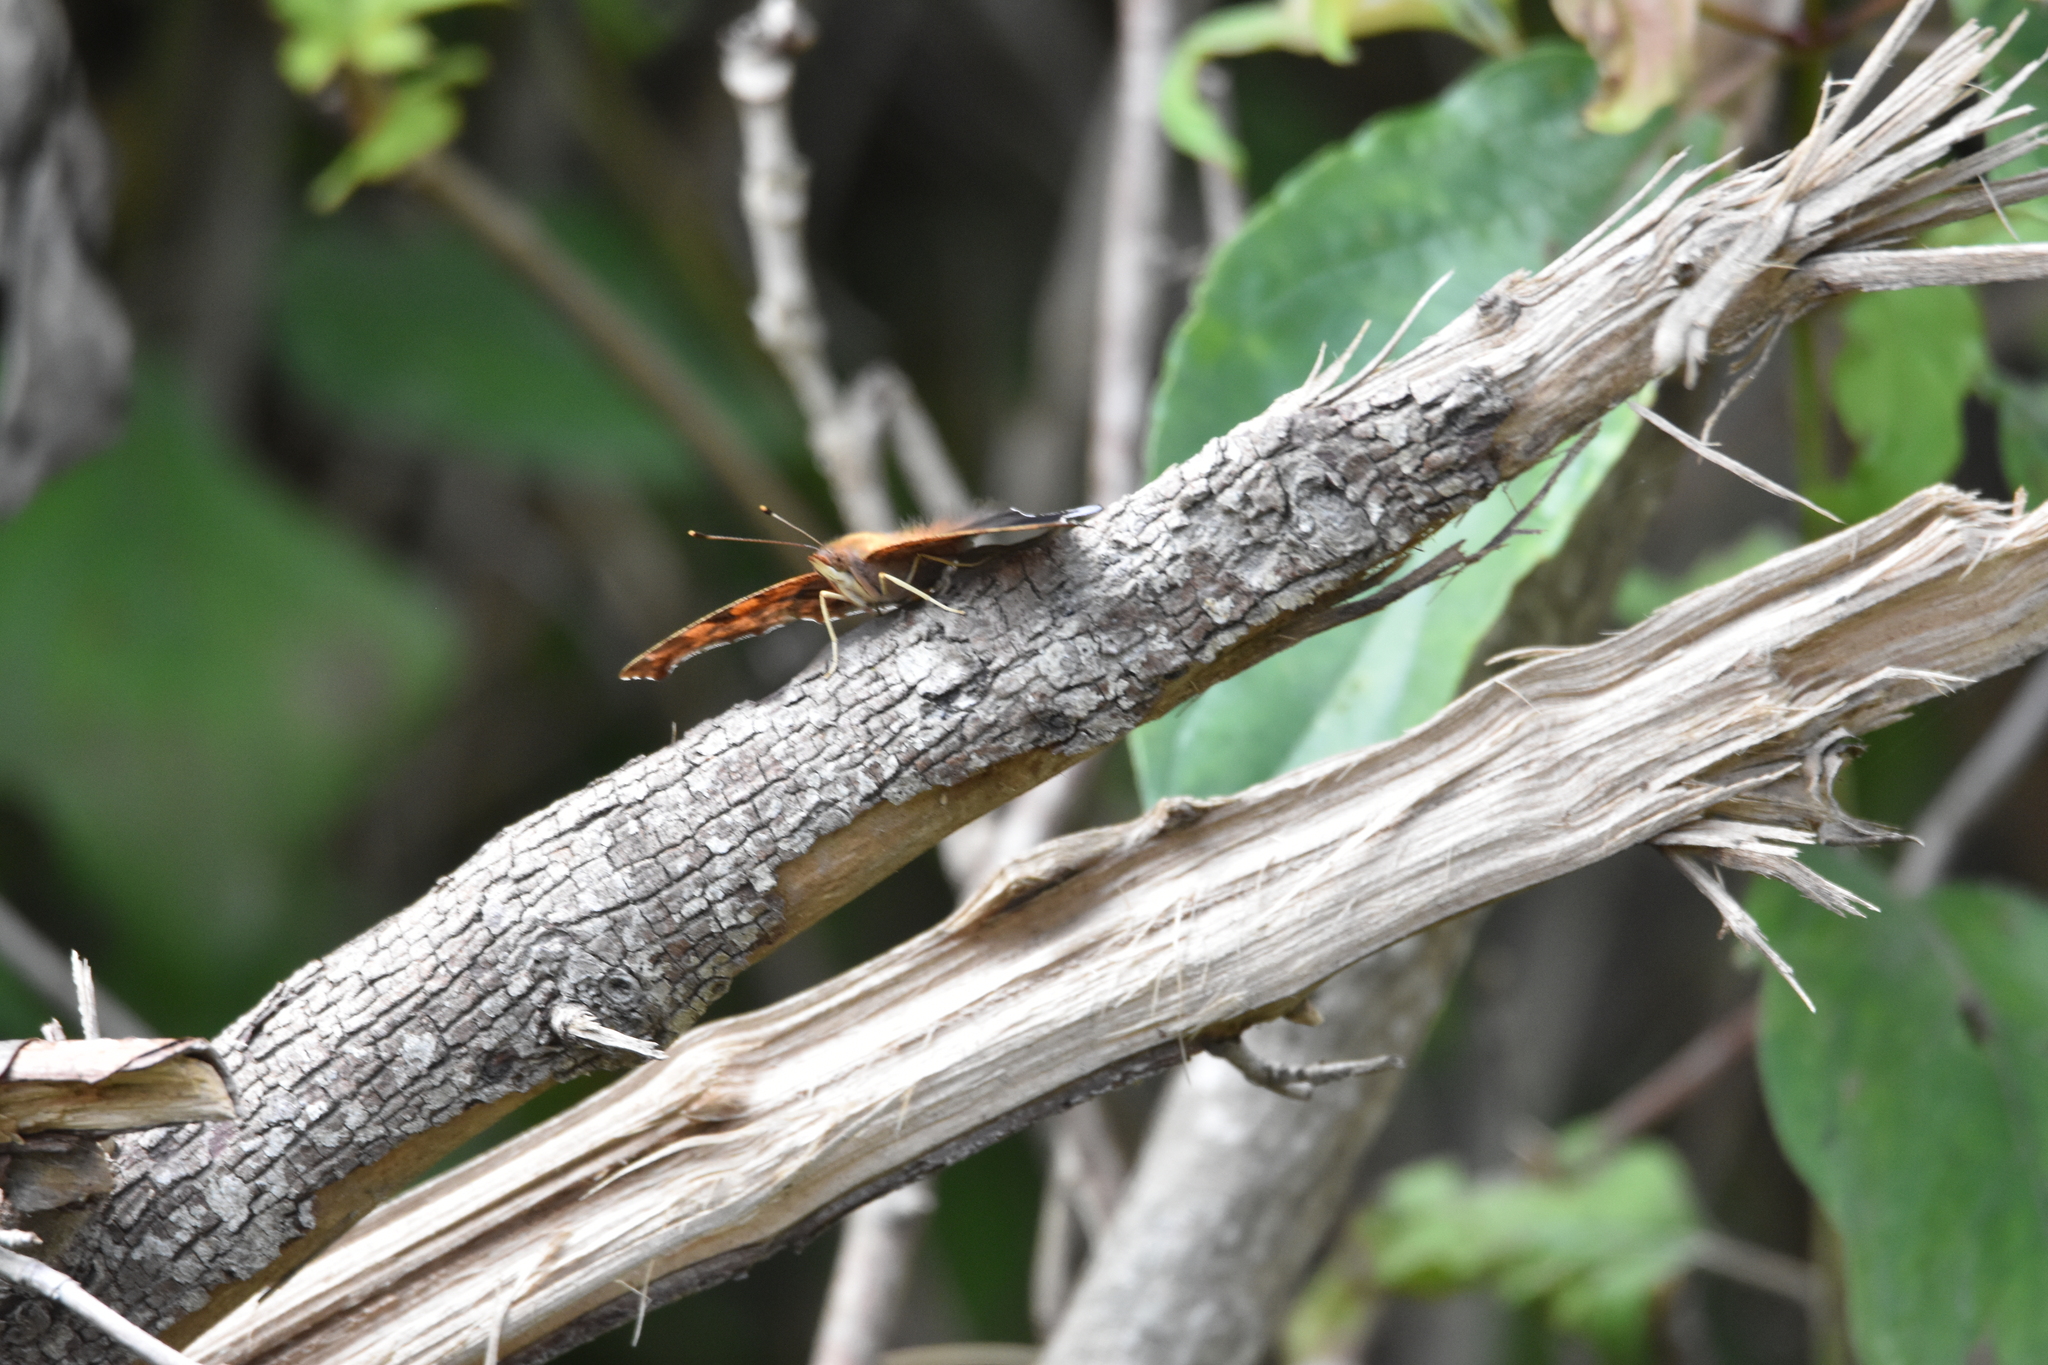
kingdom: Animalia
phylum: Arthropoda
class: Insecta
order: Lepidoptera
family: Nymphalidae
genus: Polygonia
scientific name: Polygonia interrogationis
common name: Question mark
